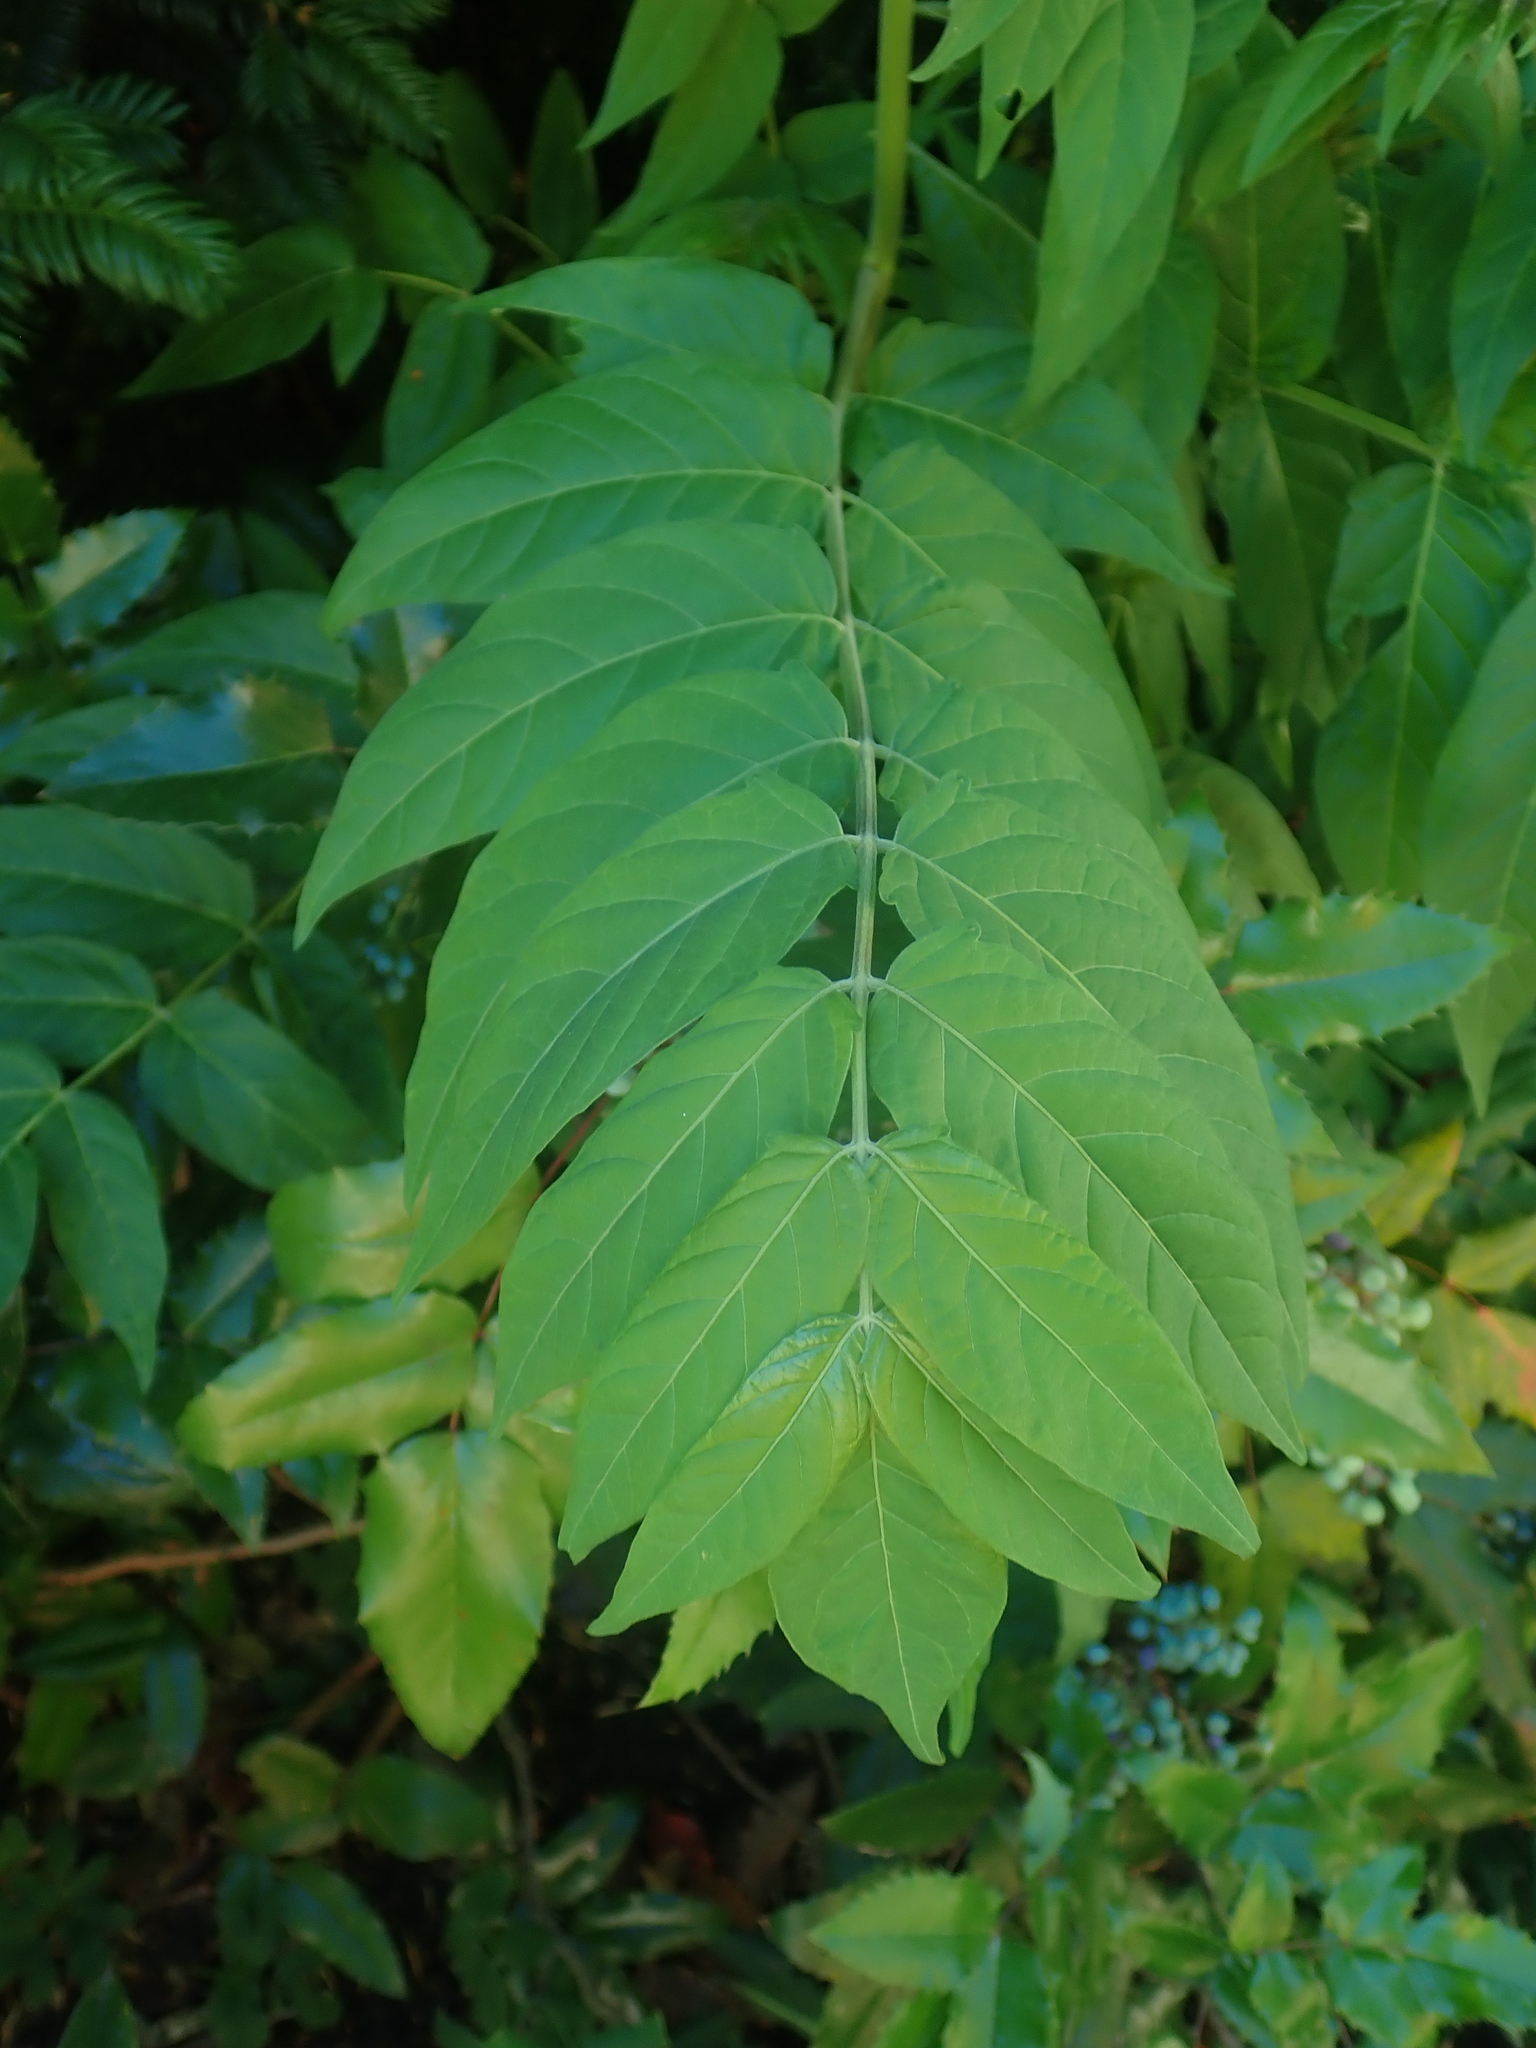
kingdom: Plantae
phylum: Tracheophyta
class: Magnoliopsida
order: Sapindales
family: Simaroubaceae
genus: Ailanthus
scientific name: Ailanthus altissima
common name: Tree-of-heaven
